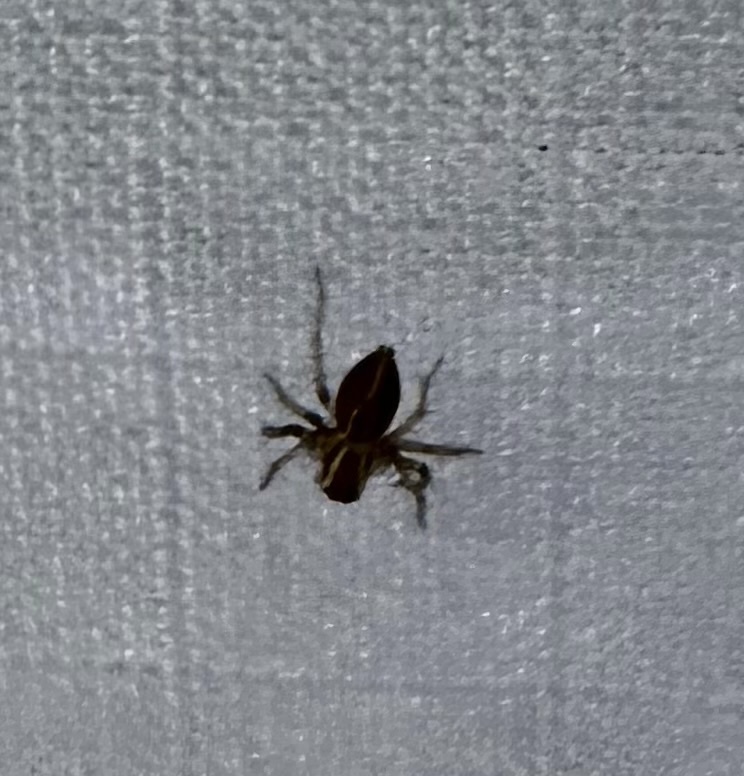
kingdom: Animalia
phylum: Arthropoda
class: Arachnida
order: Araneae
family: Oxyopidae
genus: Oxyopes
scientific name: Oxyopes salticus
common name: Lynx spiders
